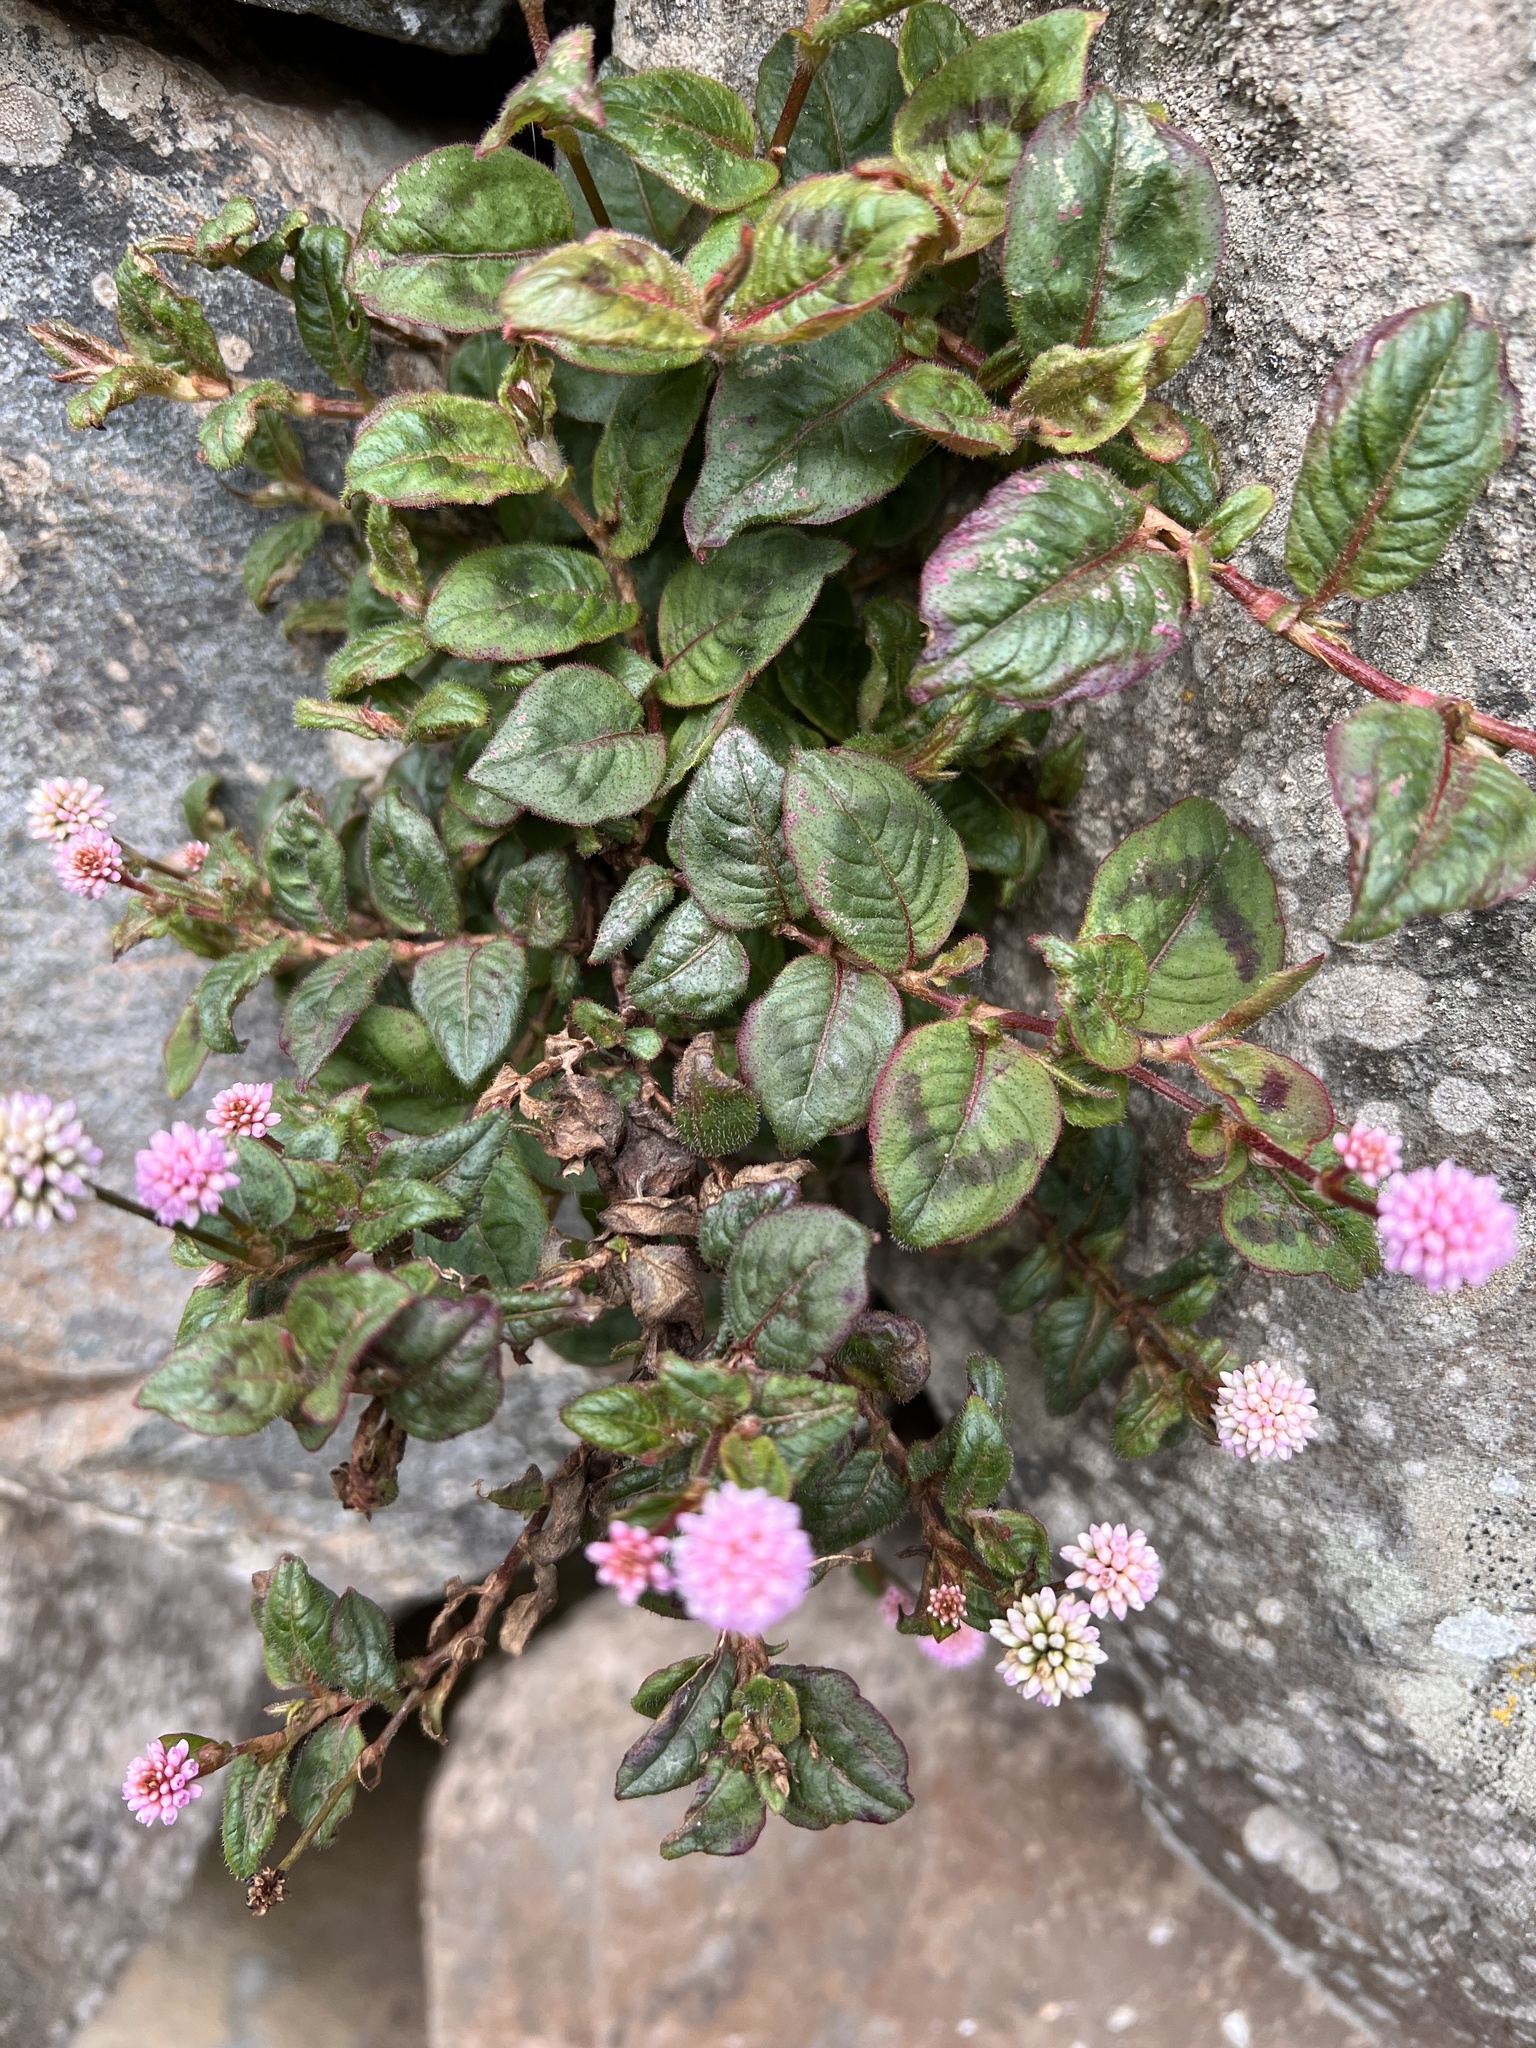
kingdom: Plantae
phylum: Tracheophyta
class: Magnoliopsida
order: Caryophyllales
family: Polygonaceae
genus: Persicaria
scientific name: Persicaria capitata
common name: Pinkhead smartweed
